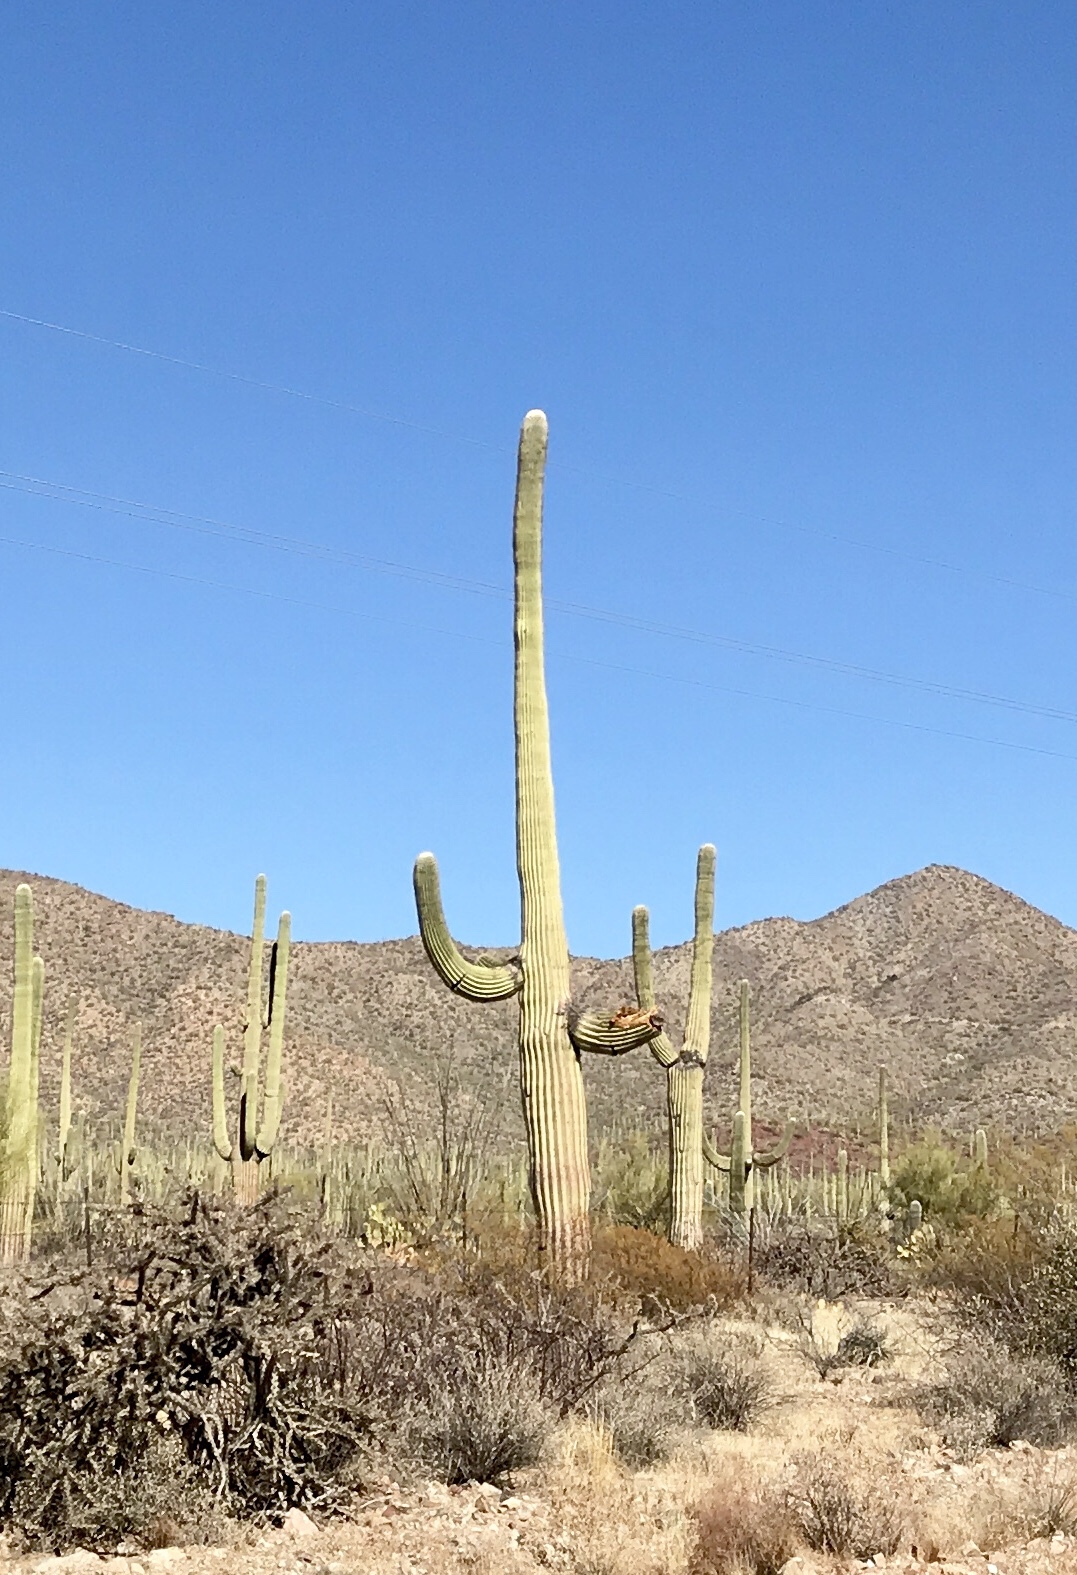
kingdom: Plantae
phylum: Tracheophyta
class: Magnoliopsida
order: Caryophyllales
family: Cactaceae
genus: Carnegiea
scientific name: Carnegiea gigantea
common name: Saguaro
